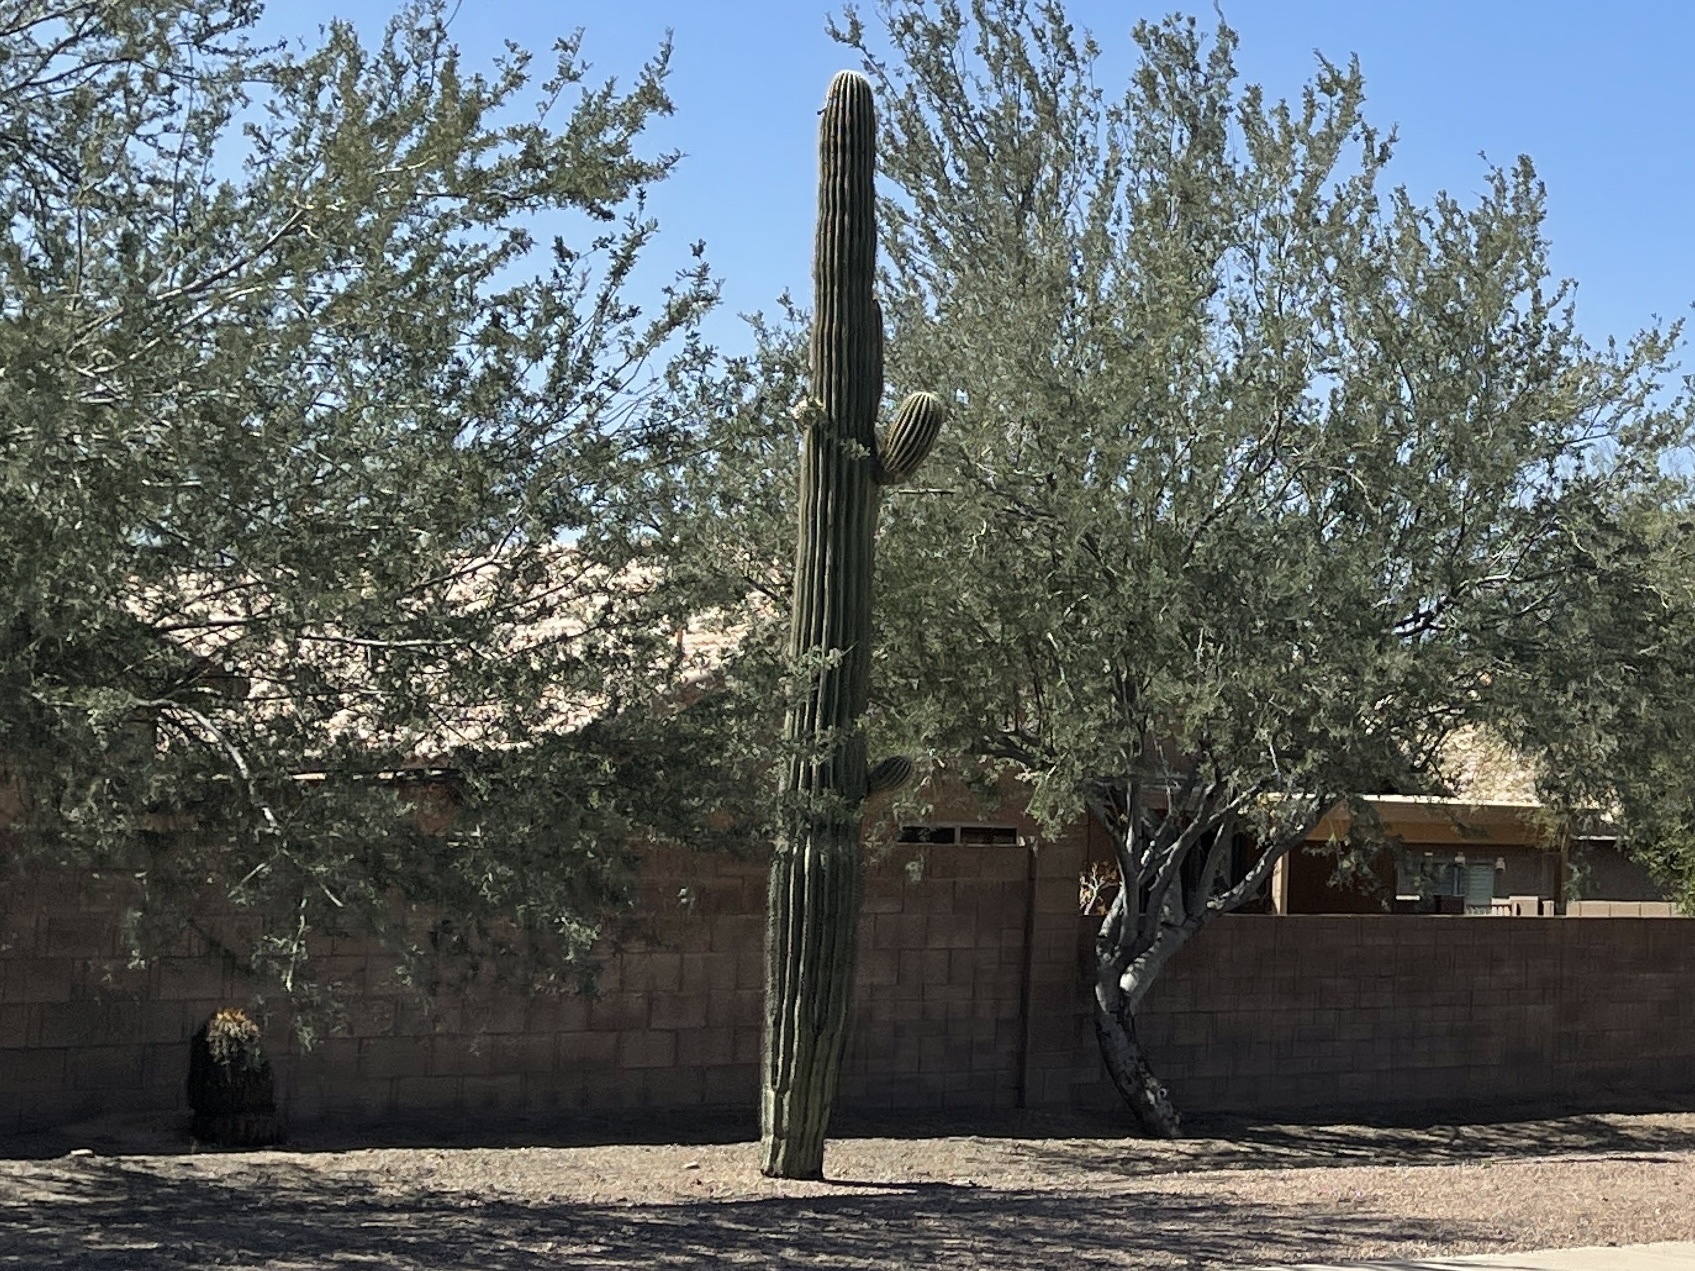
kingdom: Plantae
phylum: Tracheophyta
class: Magnoliopsida
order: Caryophyllales
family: Cactaceae
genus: Carnegiea
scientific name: Carnegiea gigantea
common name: Saguaro
